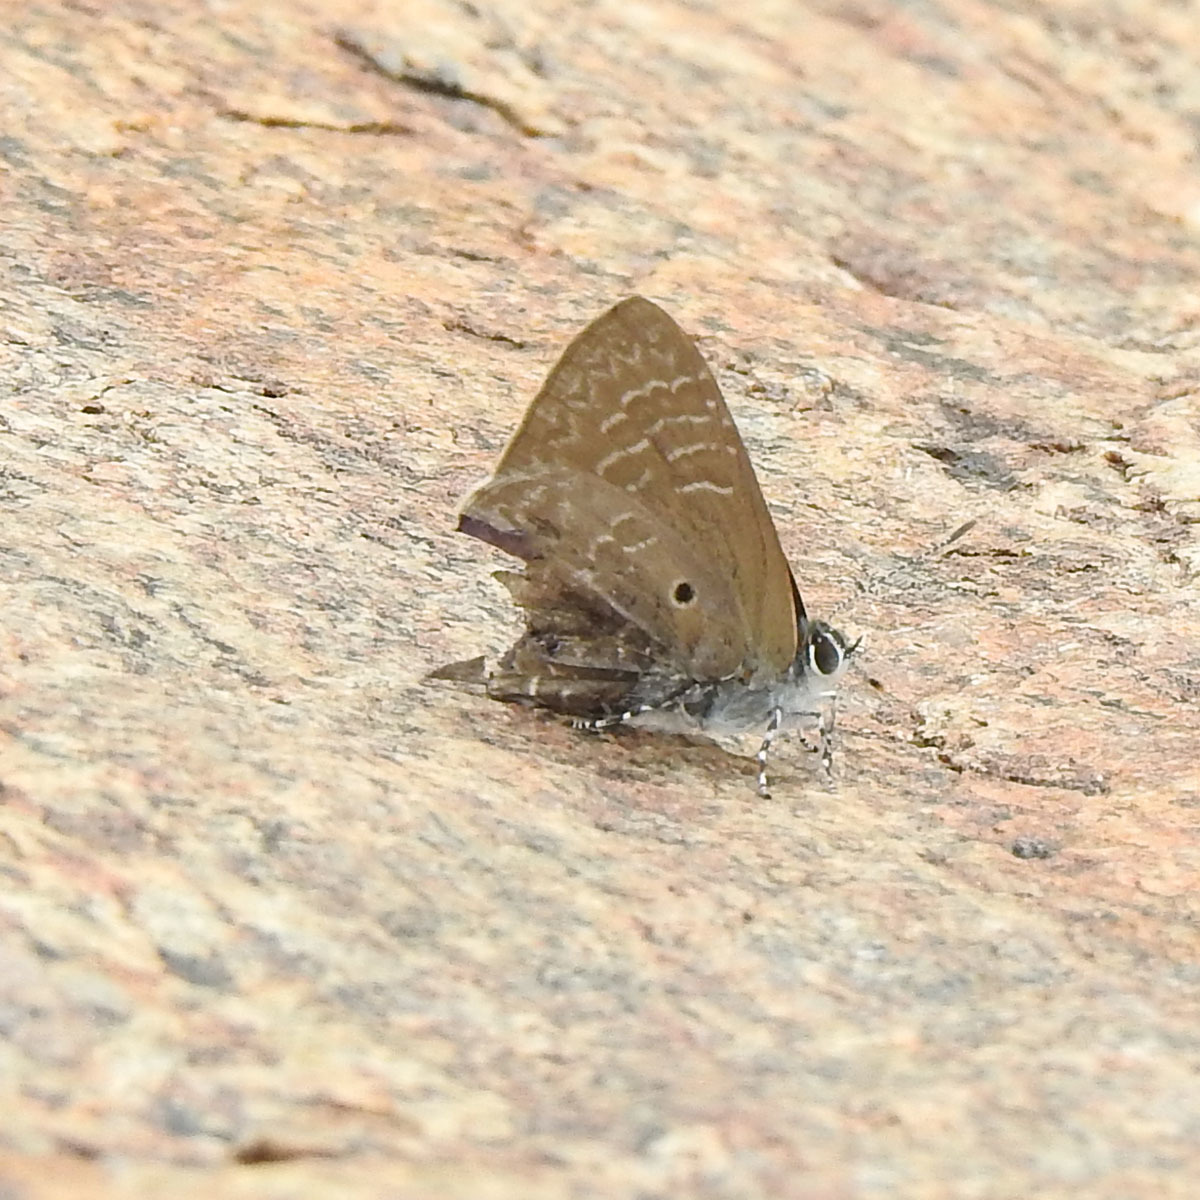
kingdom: Animalia
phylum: Arthropoda
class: Insecta
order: Lepidoptera
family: Lycaenidae
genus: Anthene
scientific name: Anthene lycaenina
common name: Pointed ciliate blue
